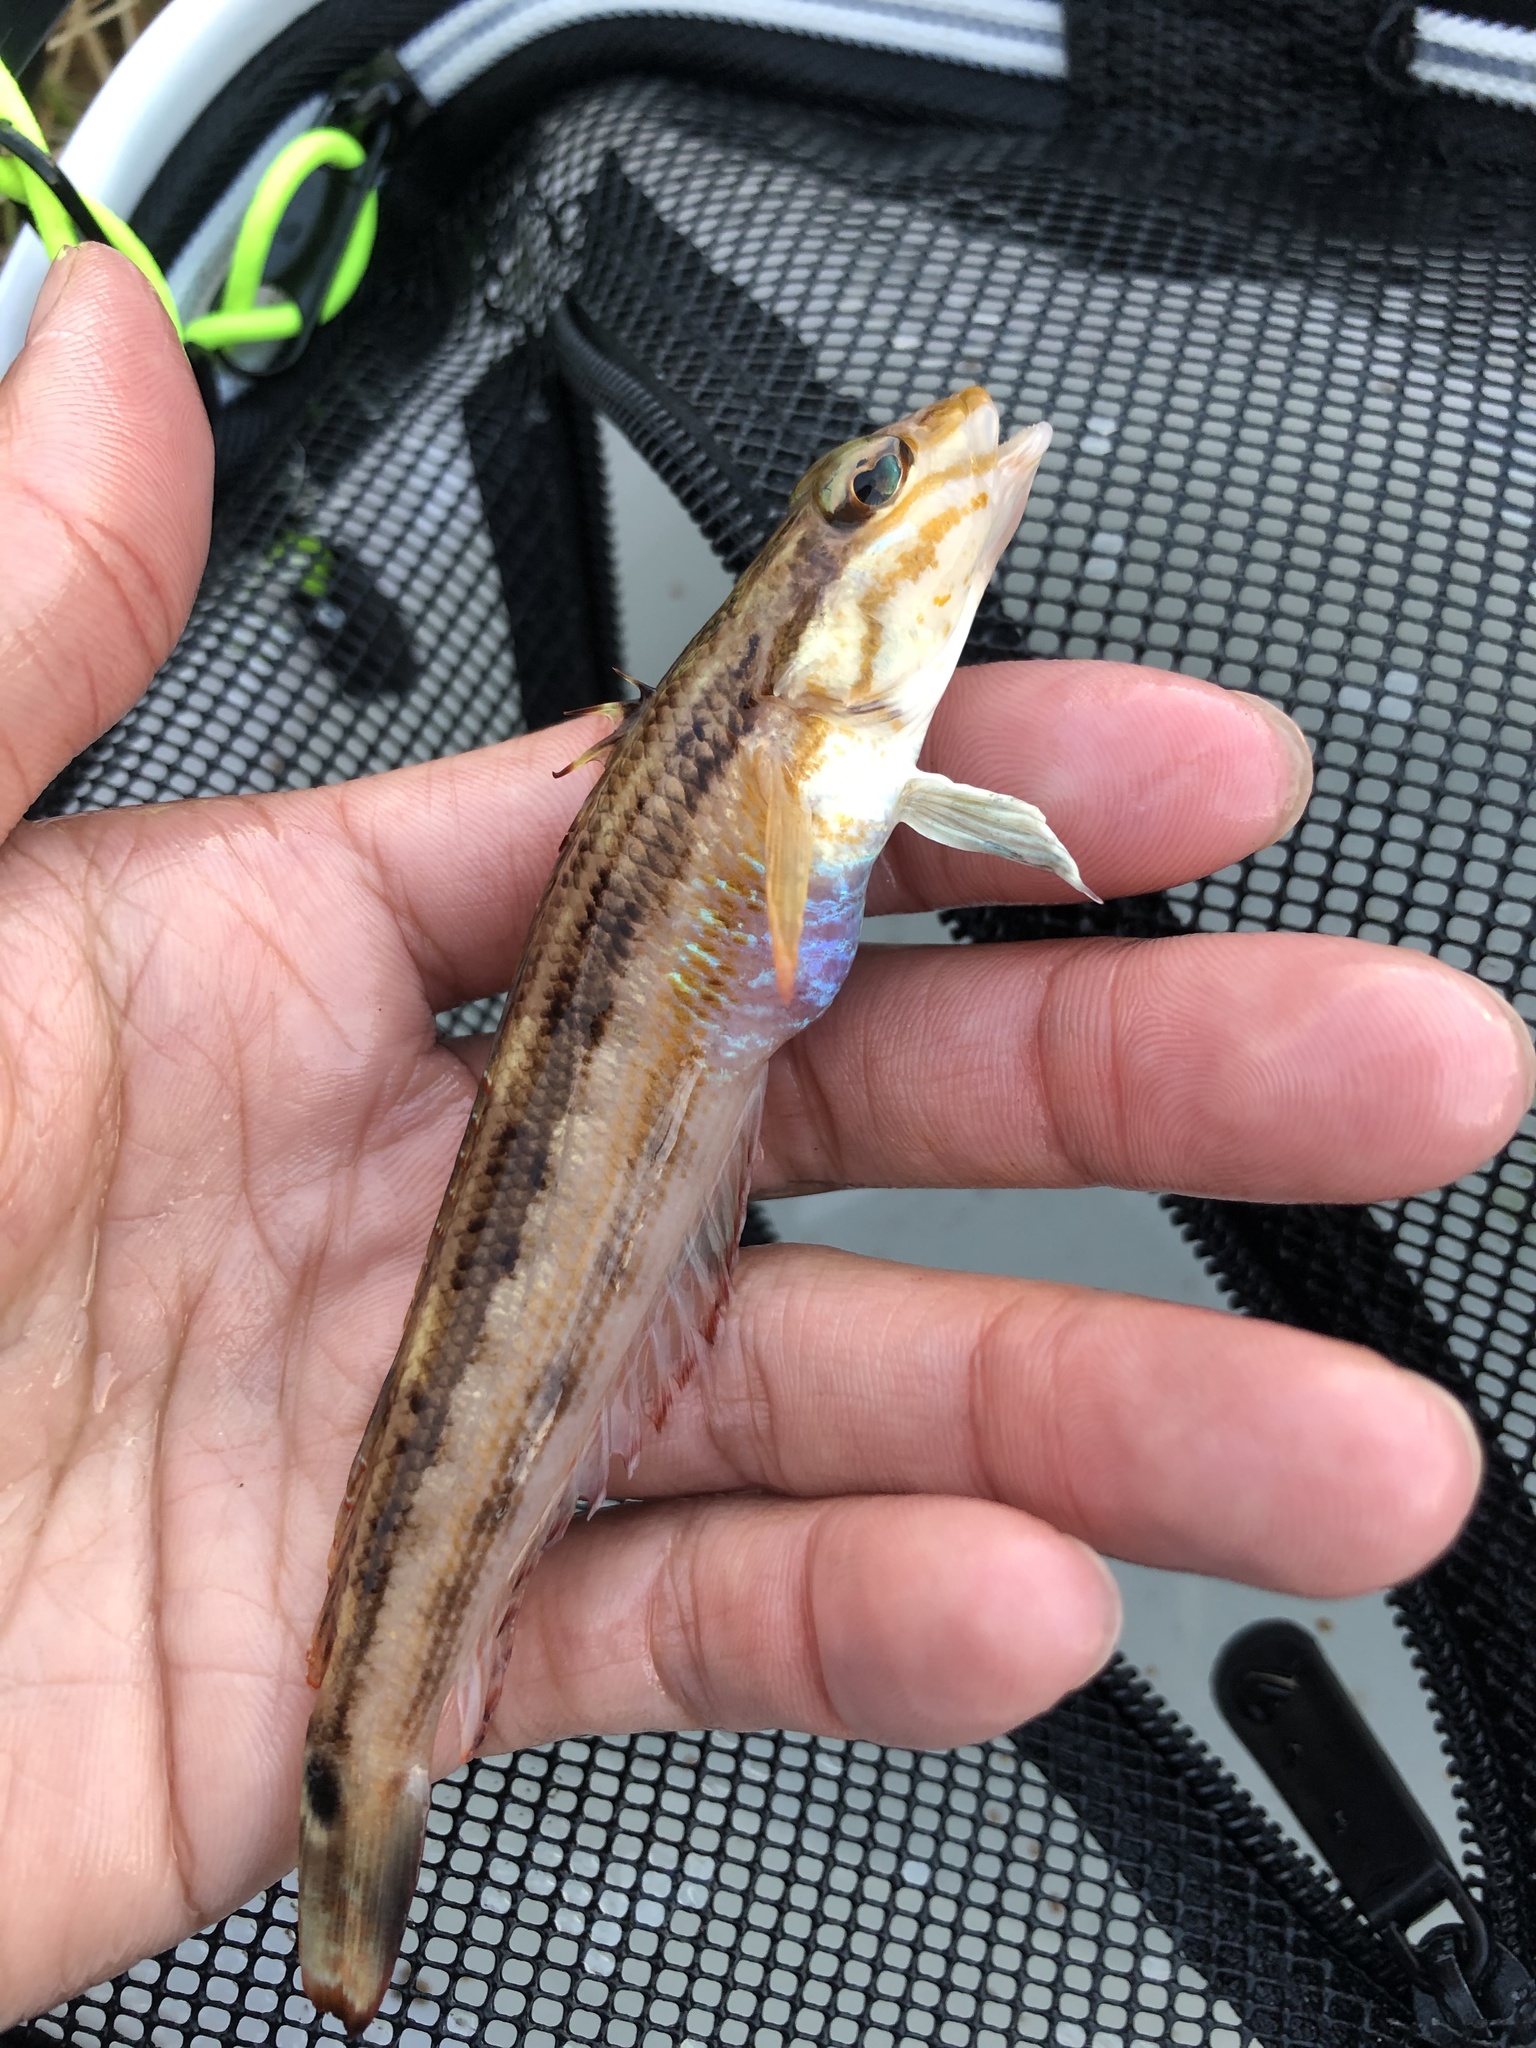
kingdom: Animalia
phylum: Chordata
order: Perciformes
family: Pinguipedidae
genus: Parapercis
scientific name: Parapercis ommatura
